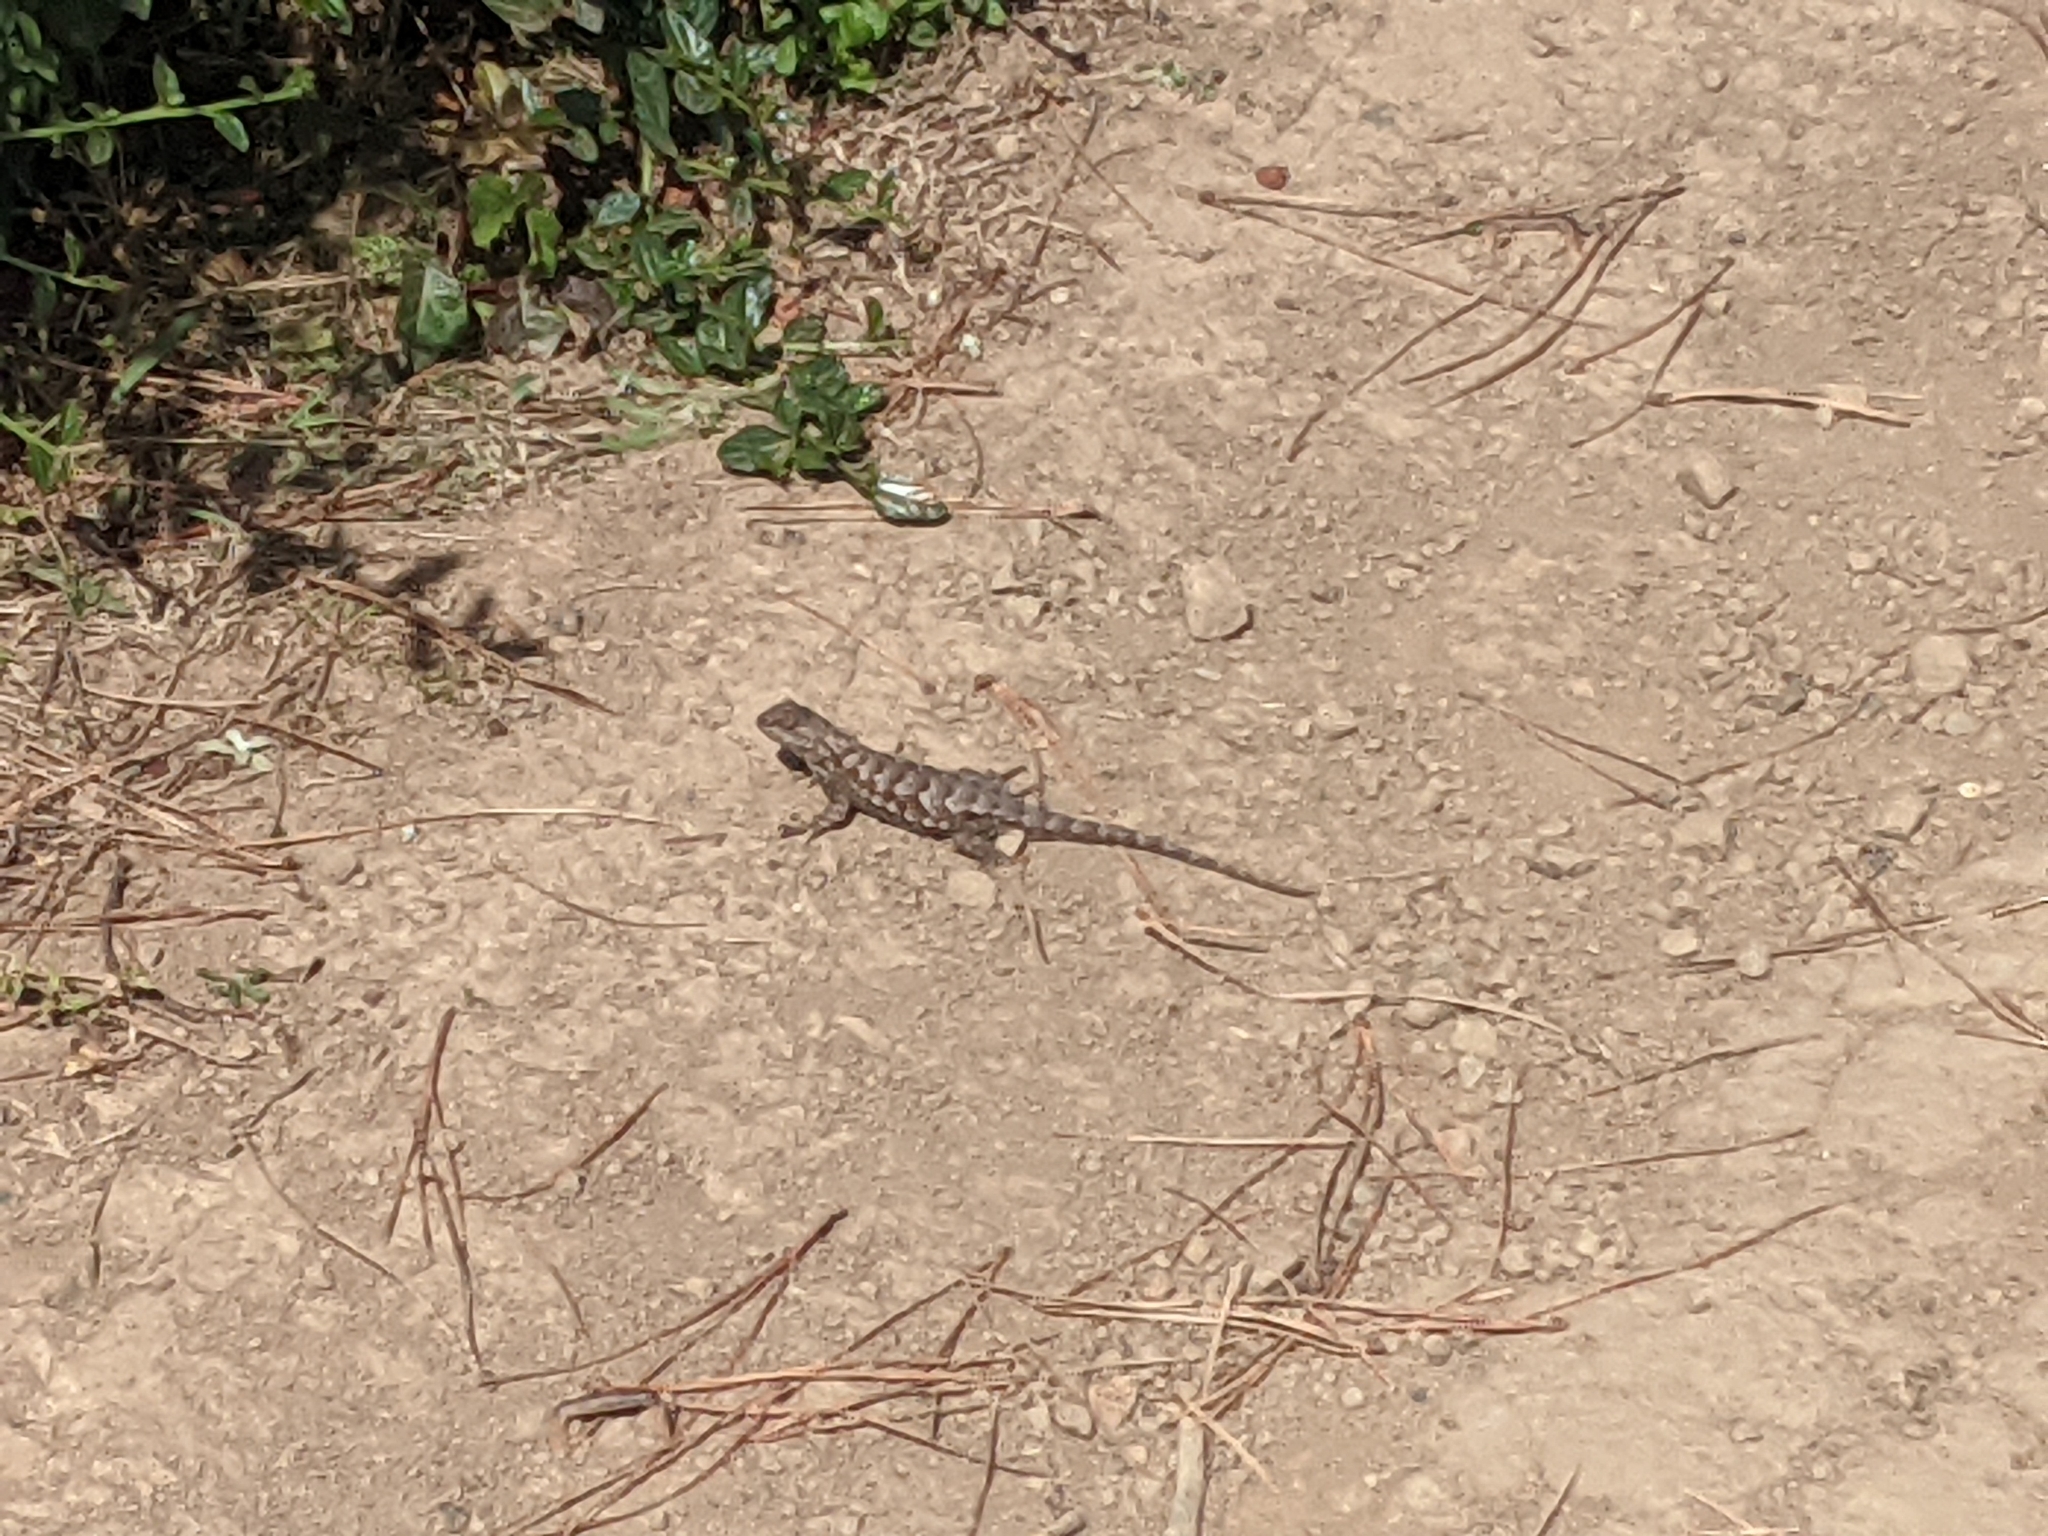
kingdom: Animalia
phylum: Chordata
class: Squamata
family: Phrynosomatidae
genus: Sceloporus
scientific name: Sceloporus occidentalis
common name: Western fence lizard
